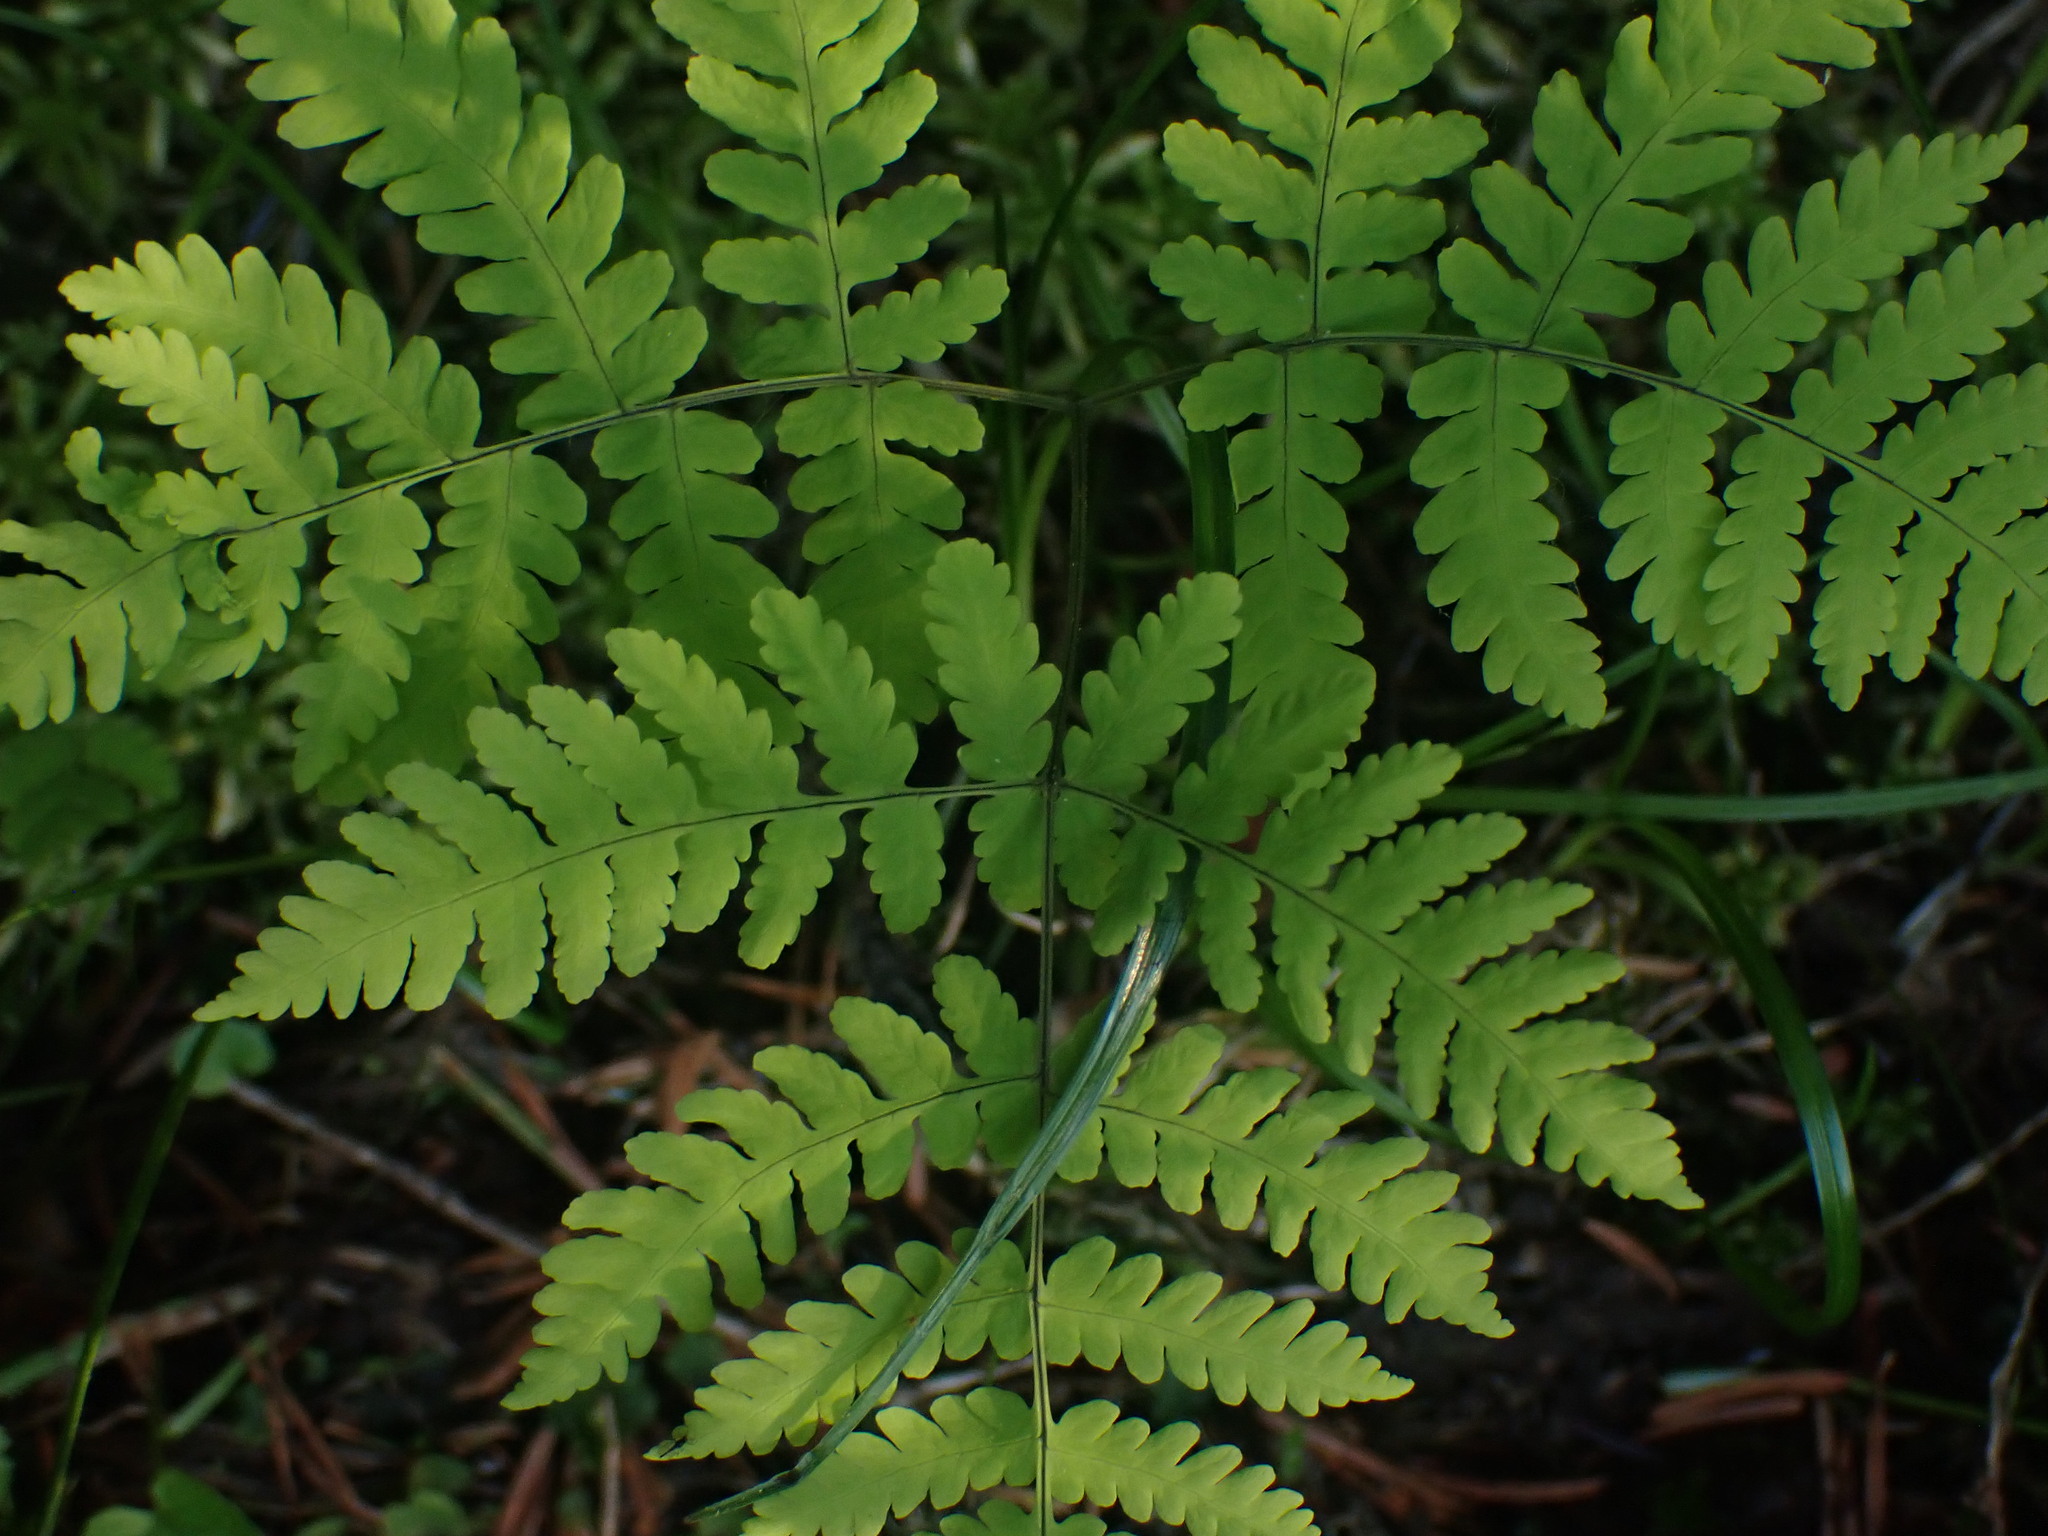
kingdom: Plantae
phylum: Tracheophyta
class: Polypodiopsida
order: Polypodiales
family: Cystopteridaceae
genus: Gymnocarpium
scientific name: Gymnocarpium disjunctum
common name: Western oak fern
